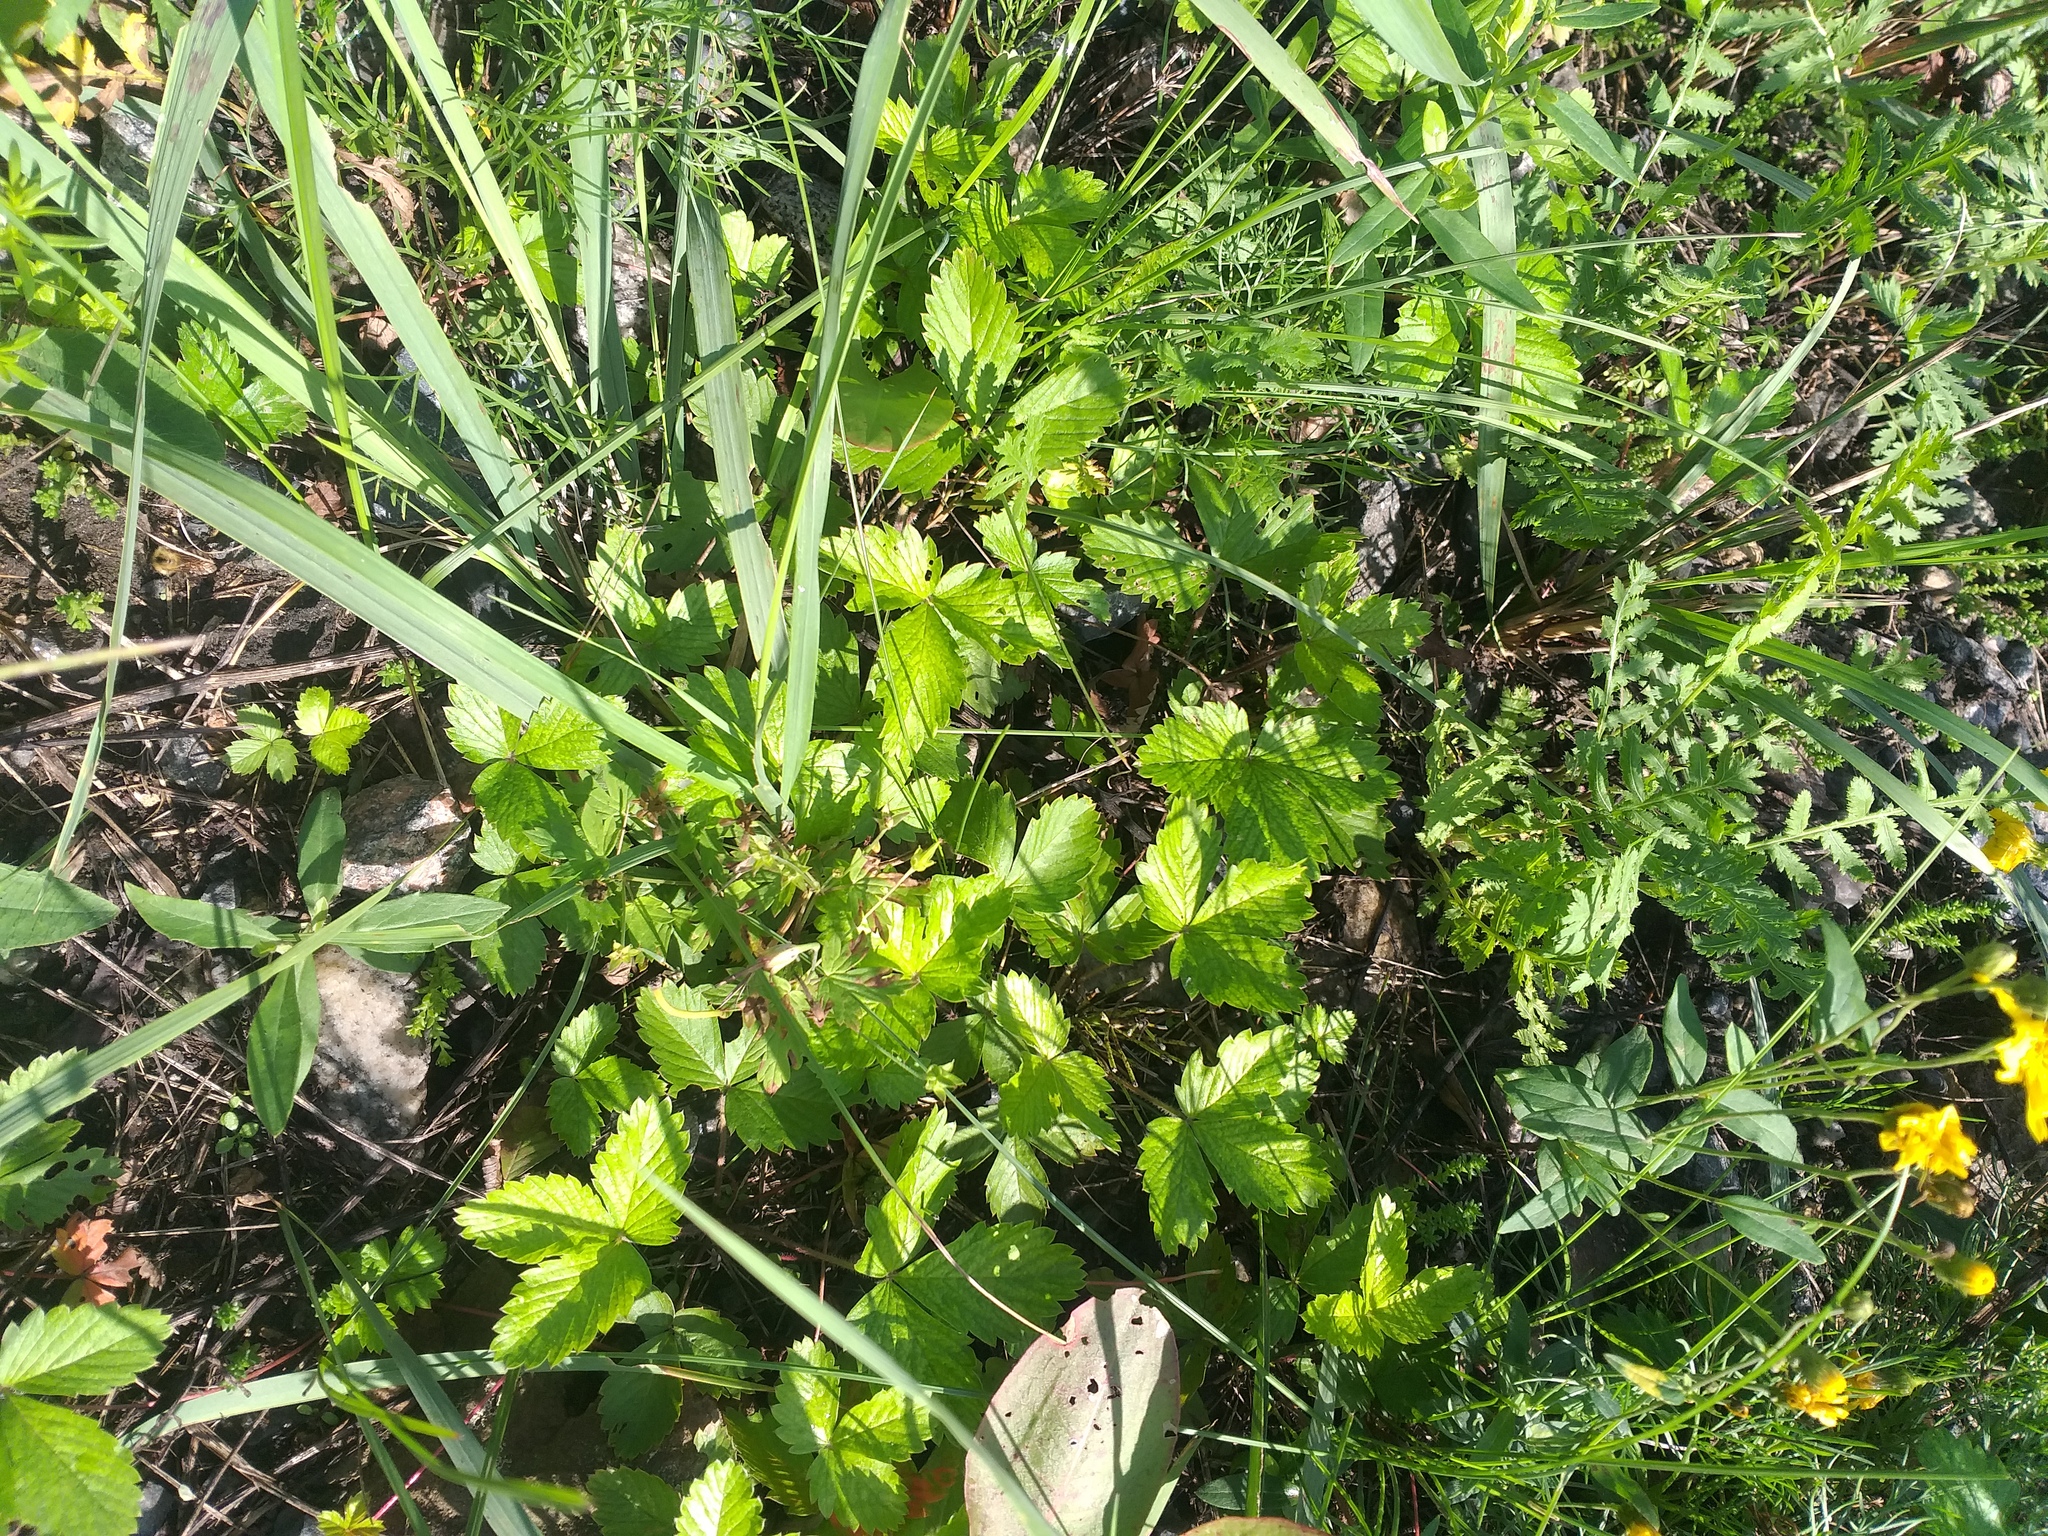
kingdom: Plantae
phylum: Tracheophyta
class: Magnoliopsida
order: Rosales
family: Rosaceae
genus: Fragaria
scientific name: Fragaria vesca
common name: Wild strawberry
